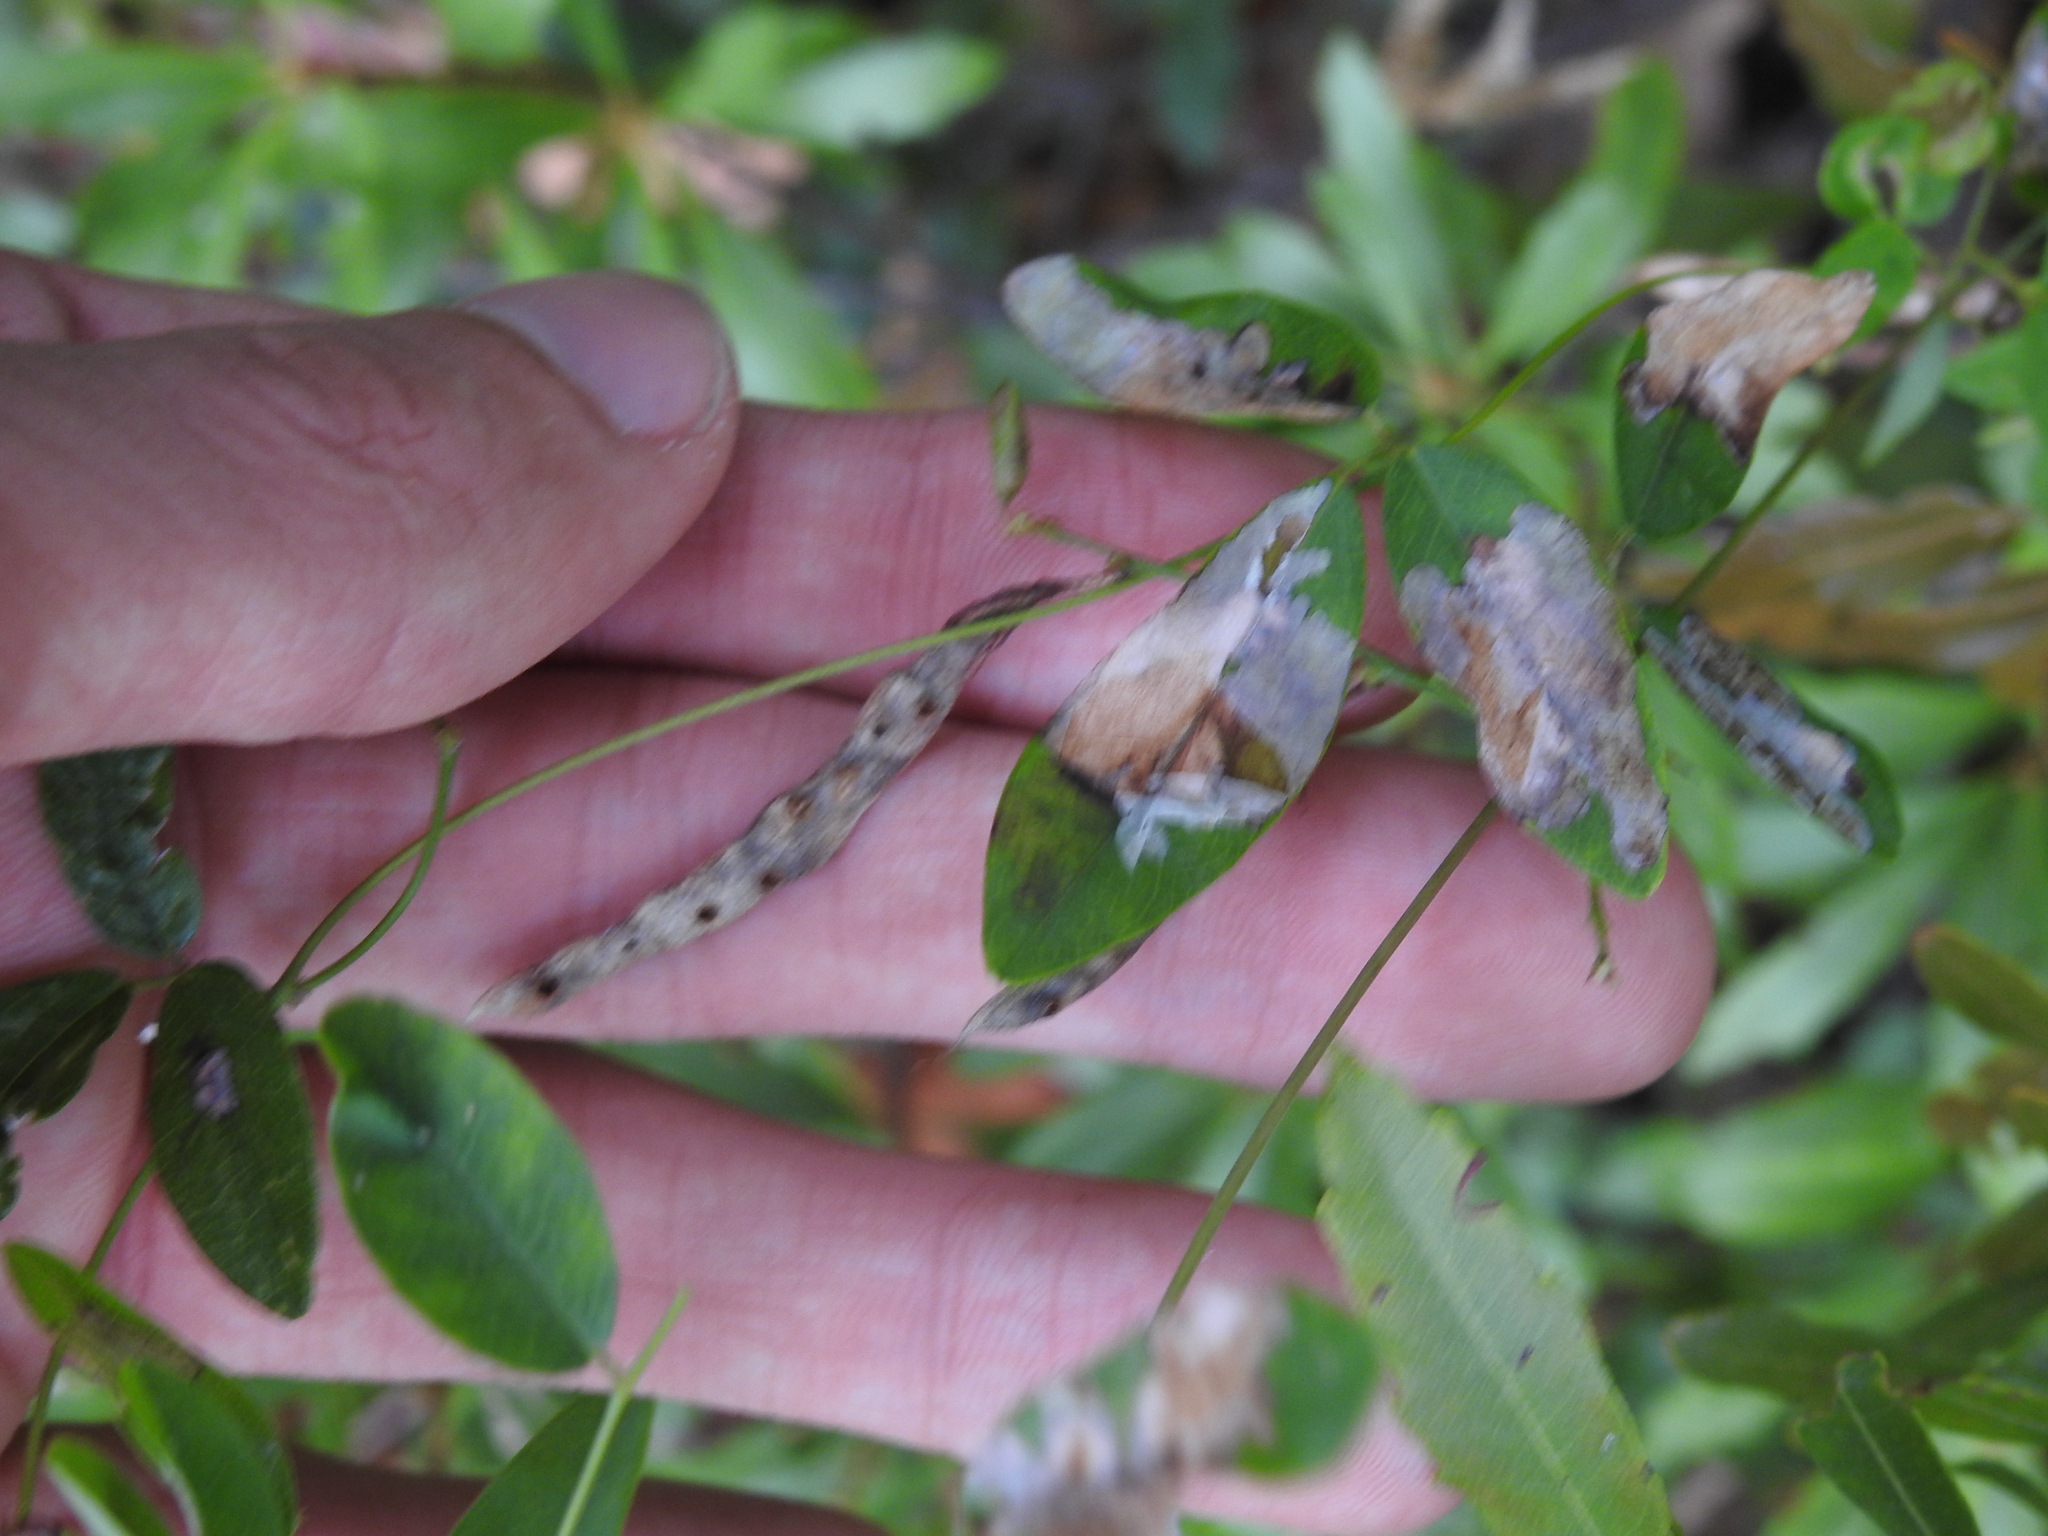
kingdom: Plantae
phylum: Tracheophyta
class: Magnoliopsida
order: Fabales
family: Fabaceae
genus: Galactia
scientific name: Galactia volubilis
